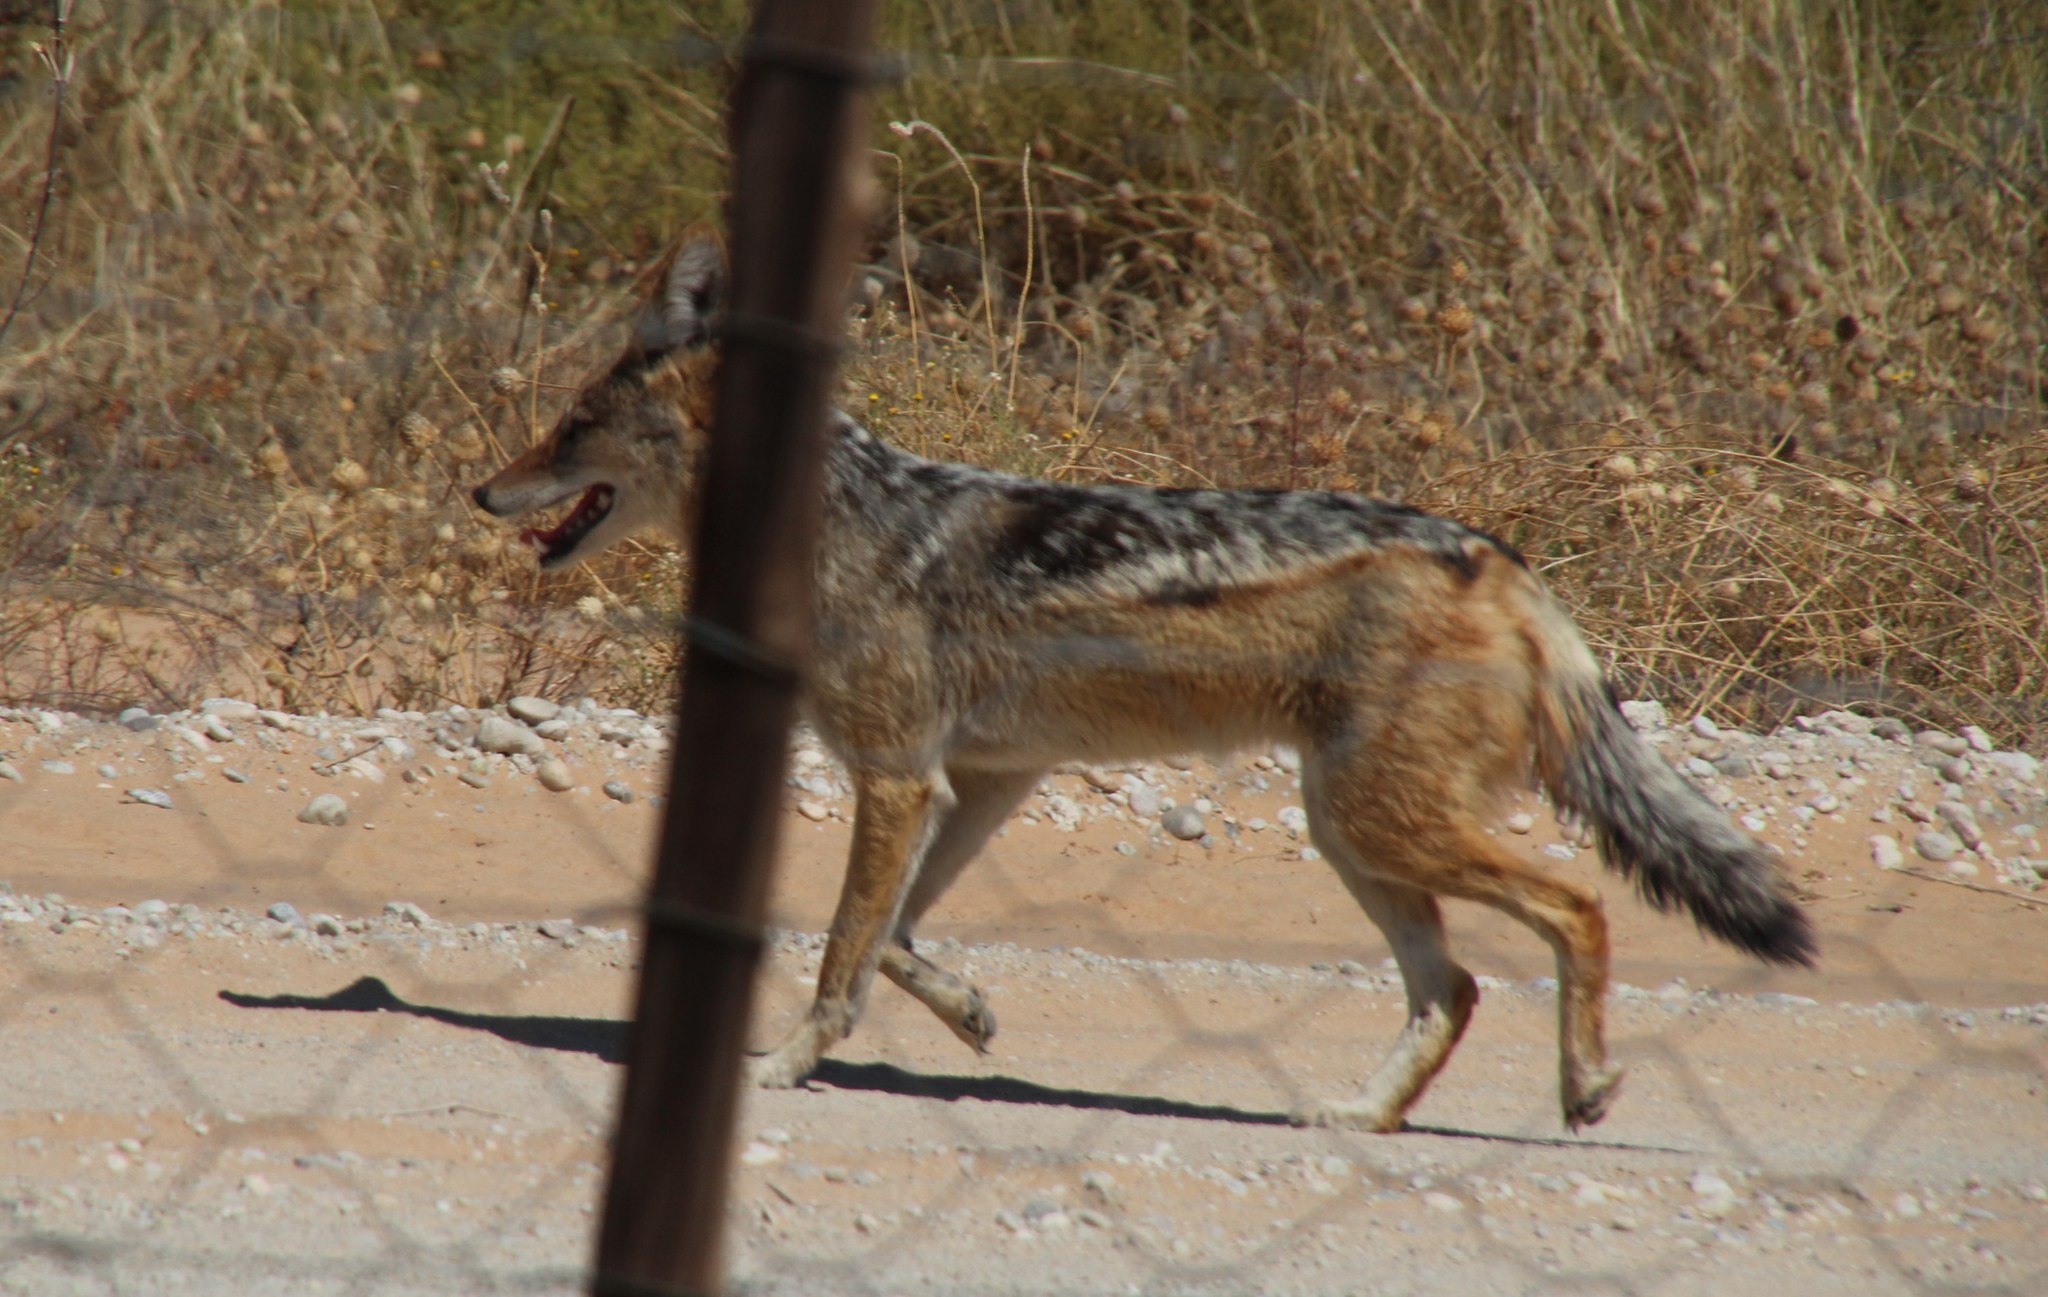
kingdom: Animalia
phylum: Chordata
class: Mammalia
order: Carnivora
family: Canidae
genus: Lupulella
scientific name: Lupulella
